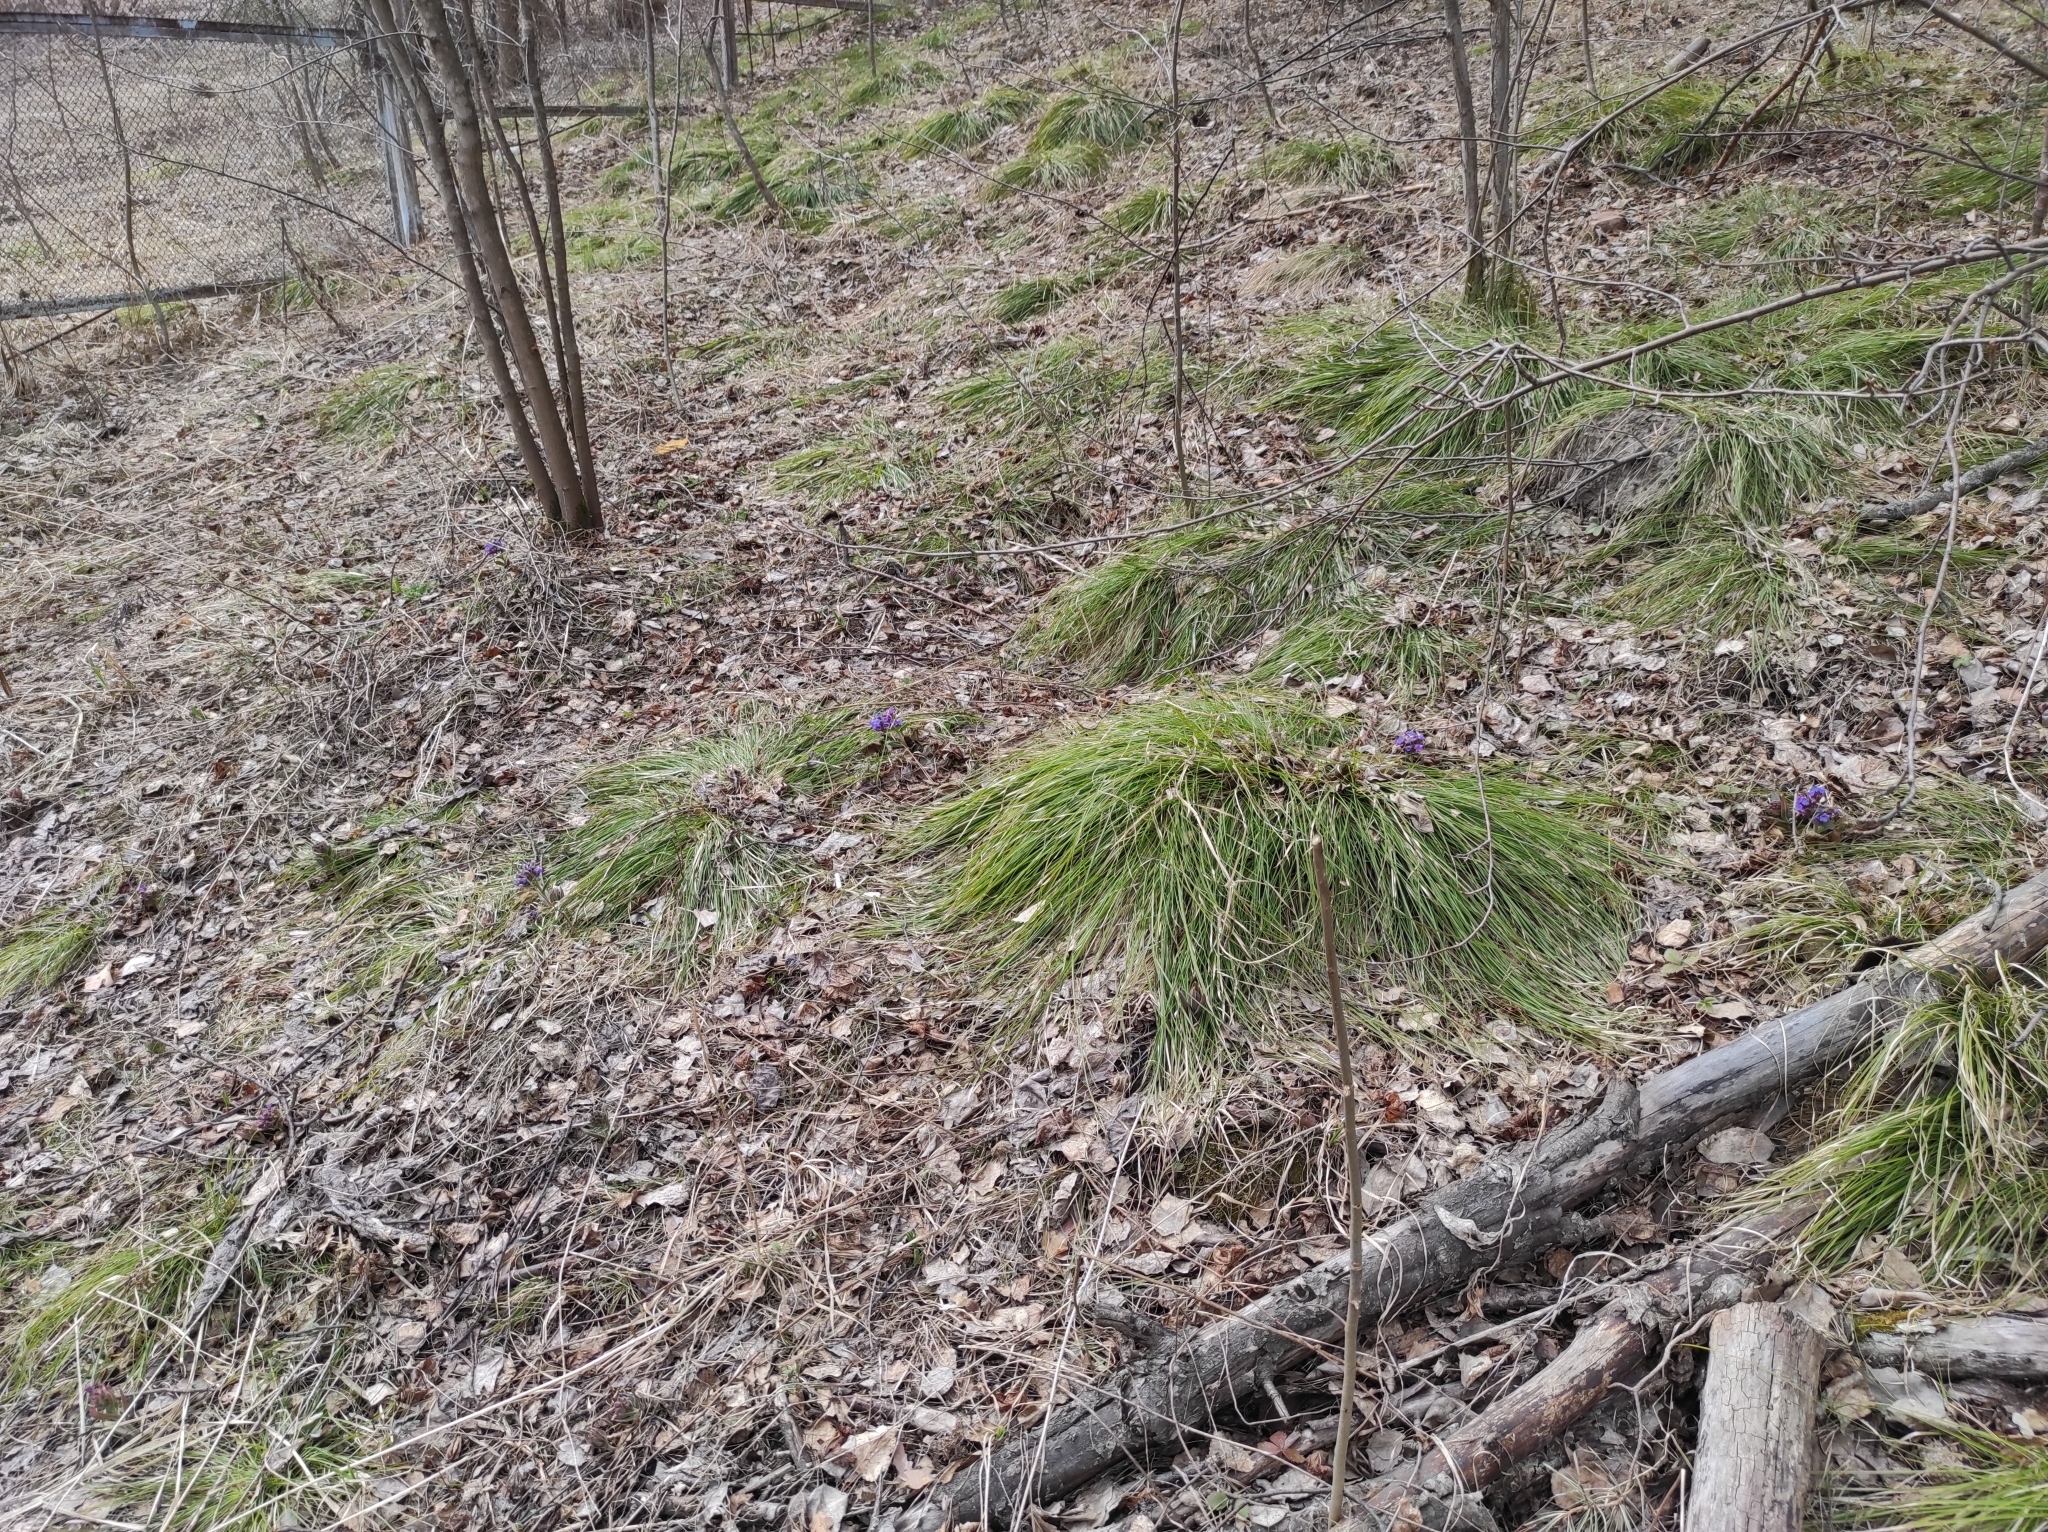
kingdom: Plantae
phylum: Tracheophyta
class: Magnoliopsida
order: Boraginales
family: Boraginaceae
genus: Pulmonaria
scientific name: Pulmonaria mollis
